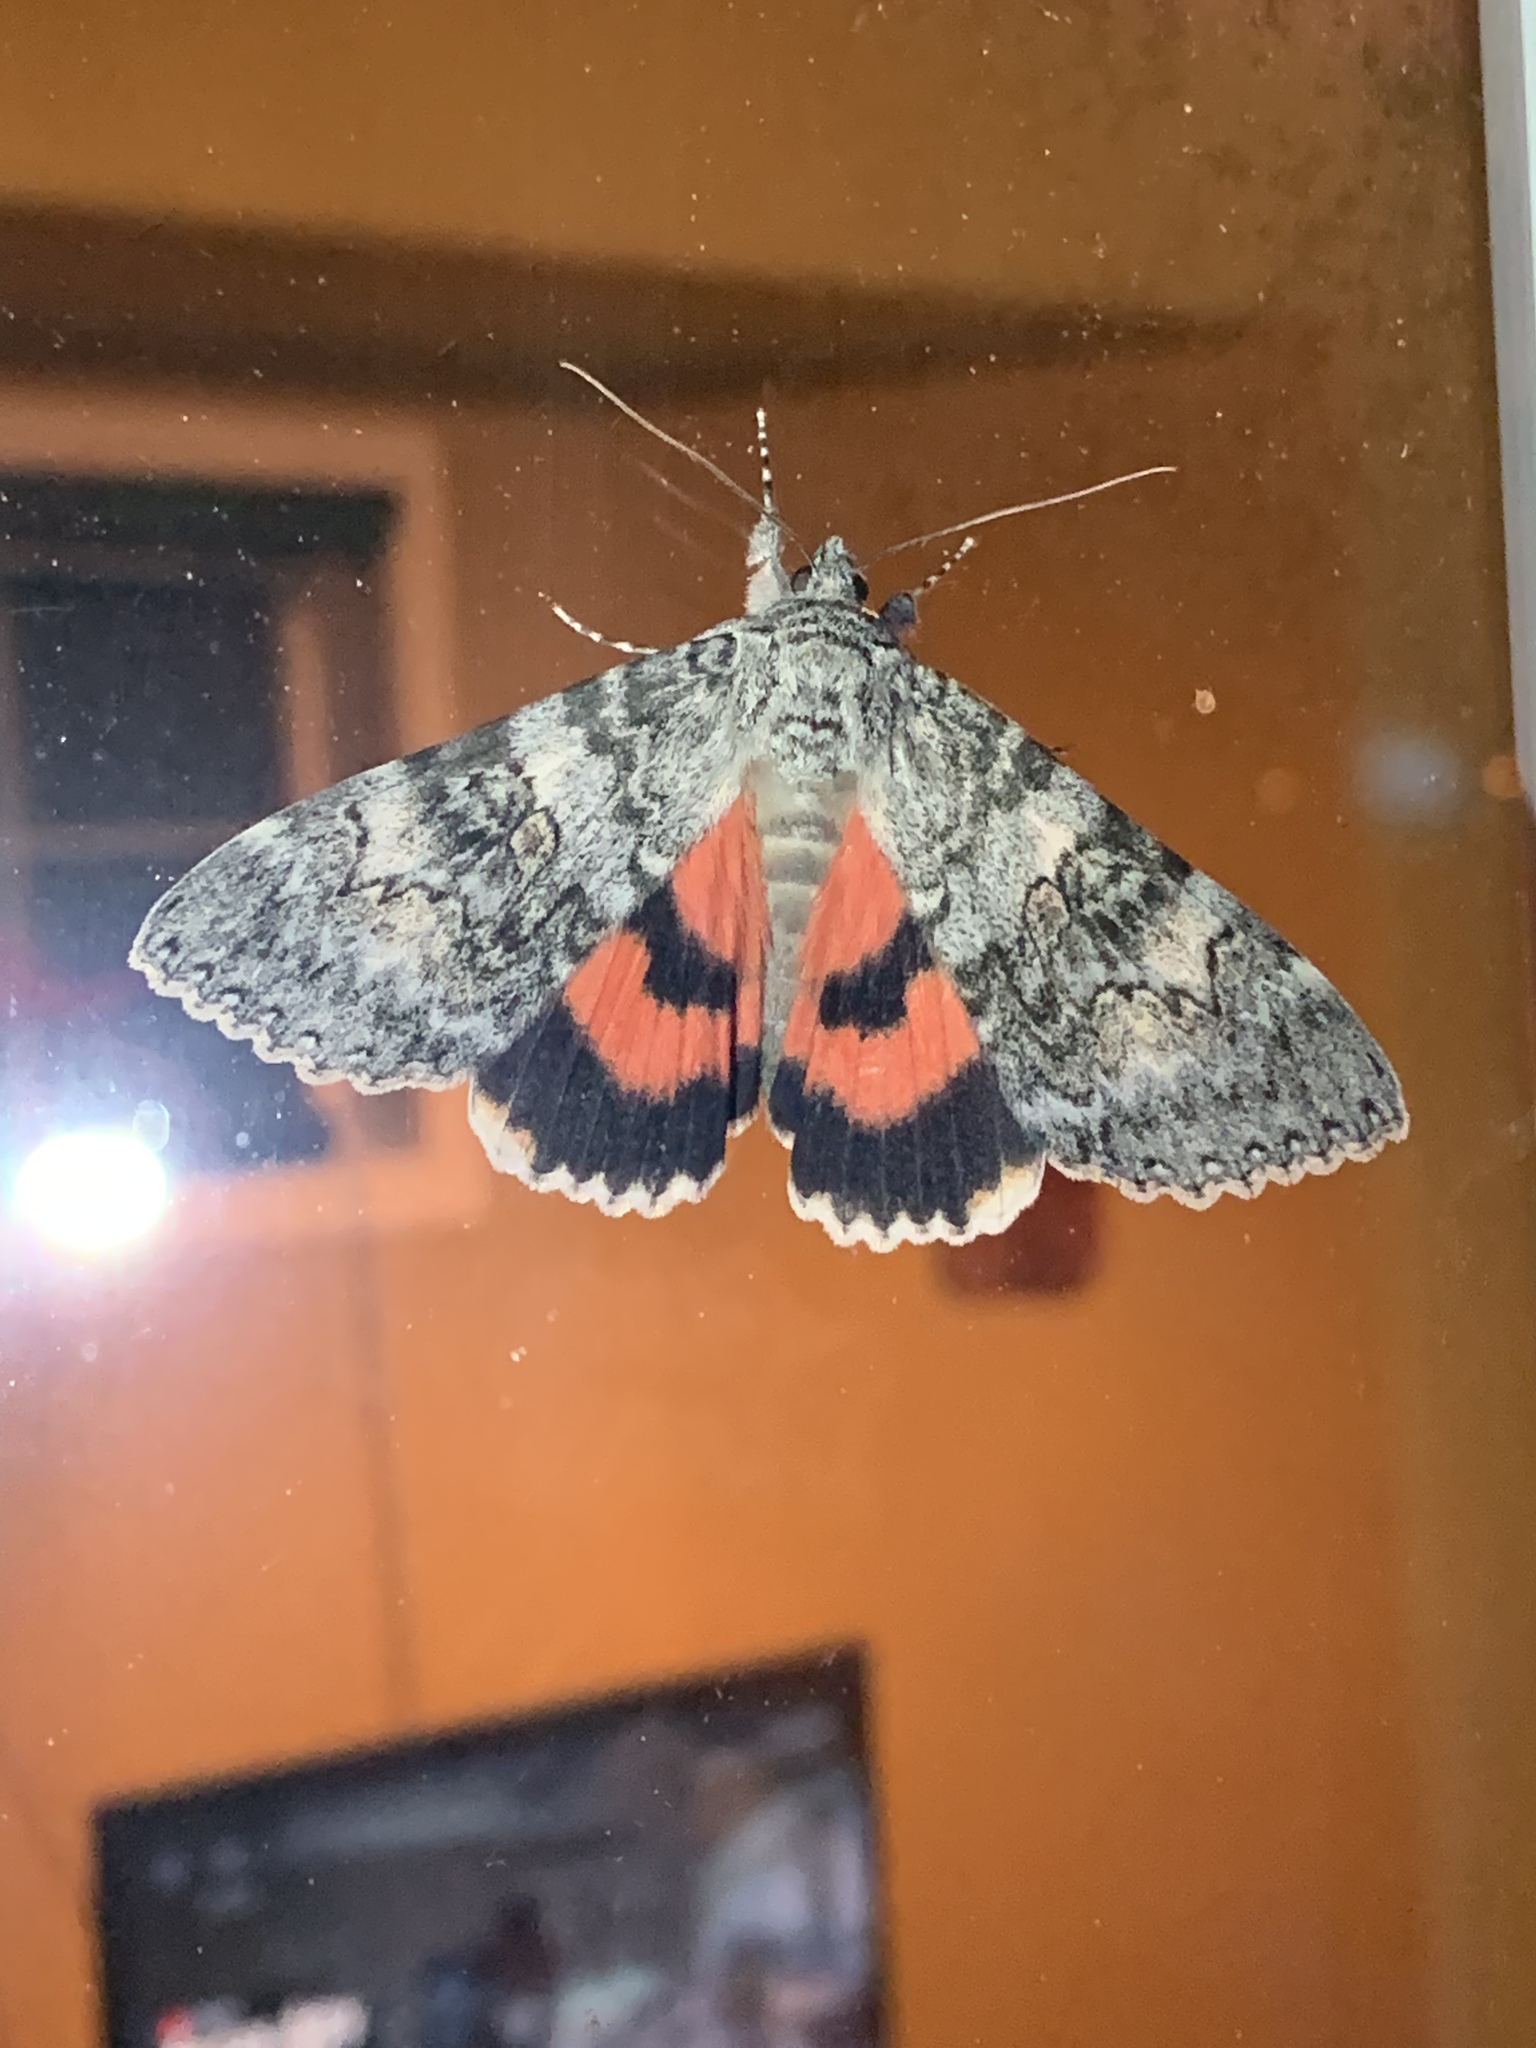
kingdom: Animalia
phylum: Arthropoda
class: Insecta
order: Lepidoptera
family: Erebidae
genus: Catocala
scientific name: Catocala semirelicta
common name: Semirelict underwing moth
